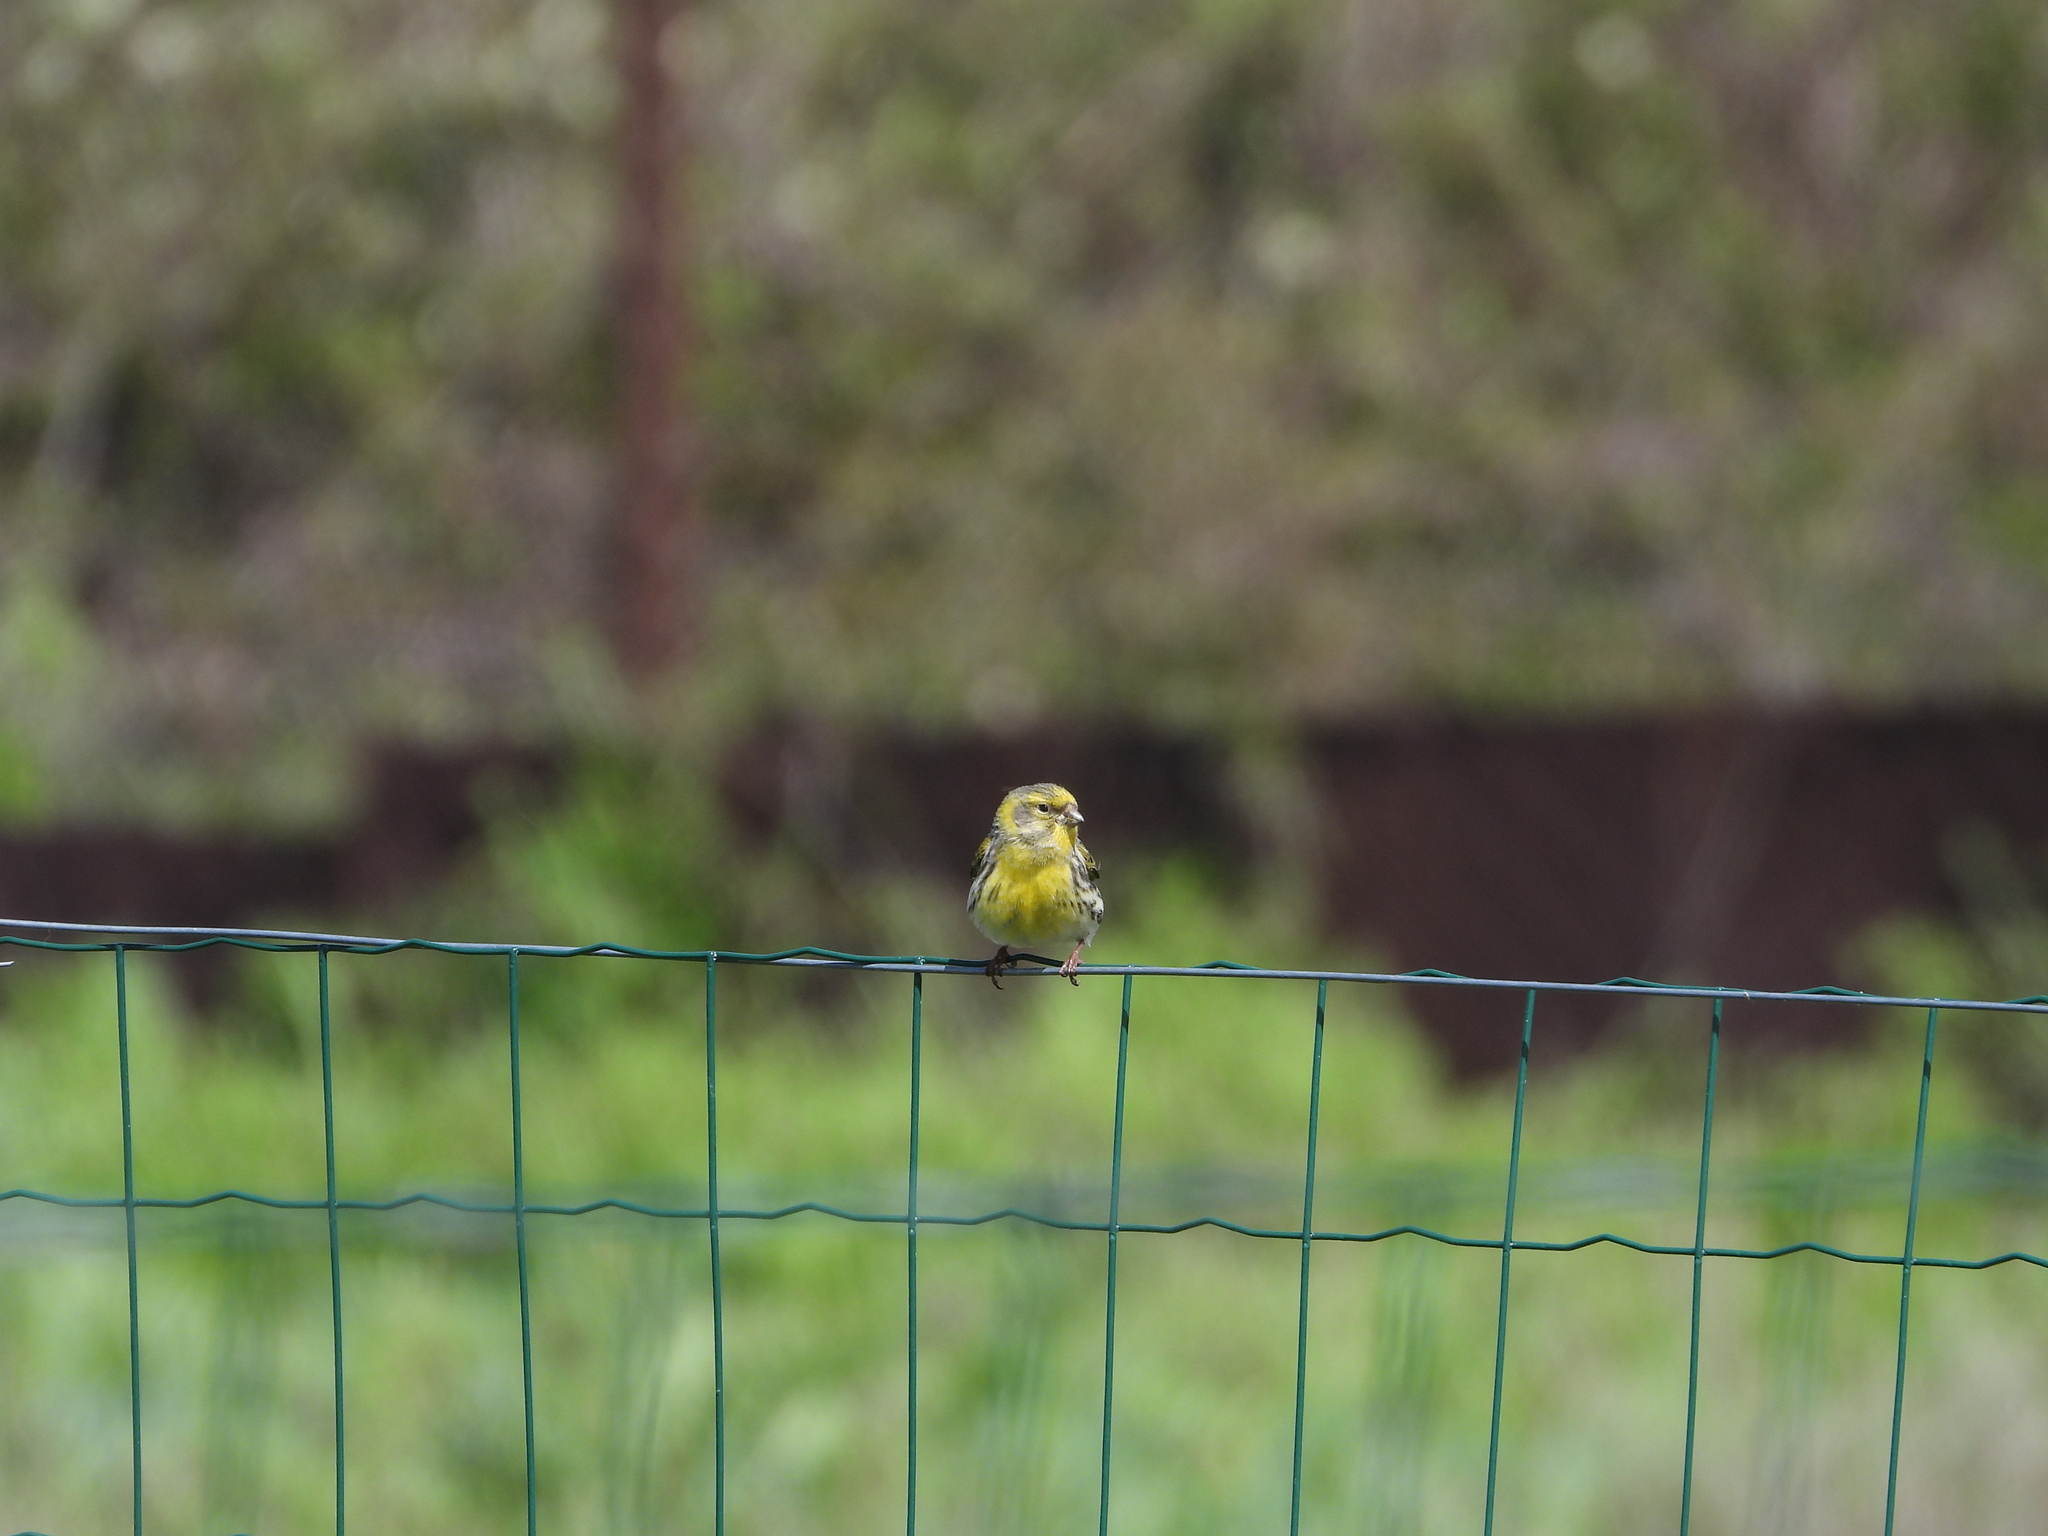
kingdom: Animalia
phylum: Chordata
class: Aves
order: Passeriformes
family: Fringillidae
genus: Serinus
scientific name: Serinus serinus
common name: European serin
